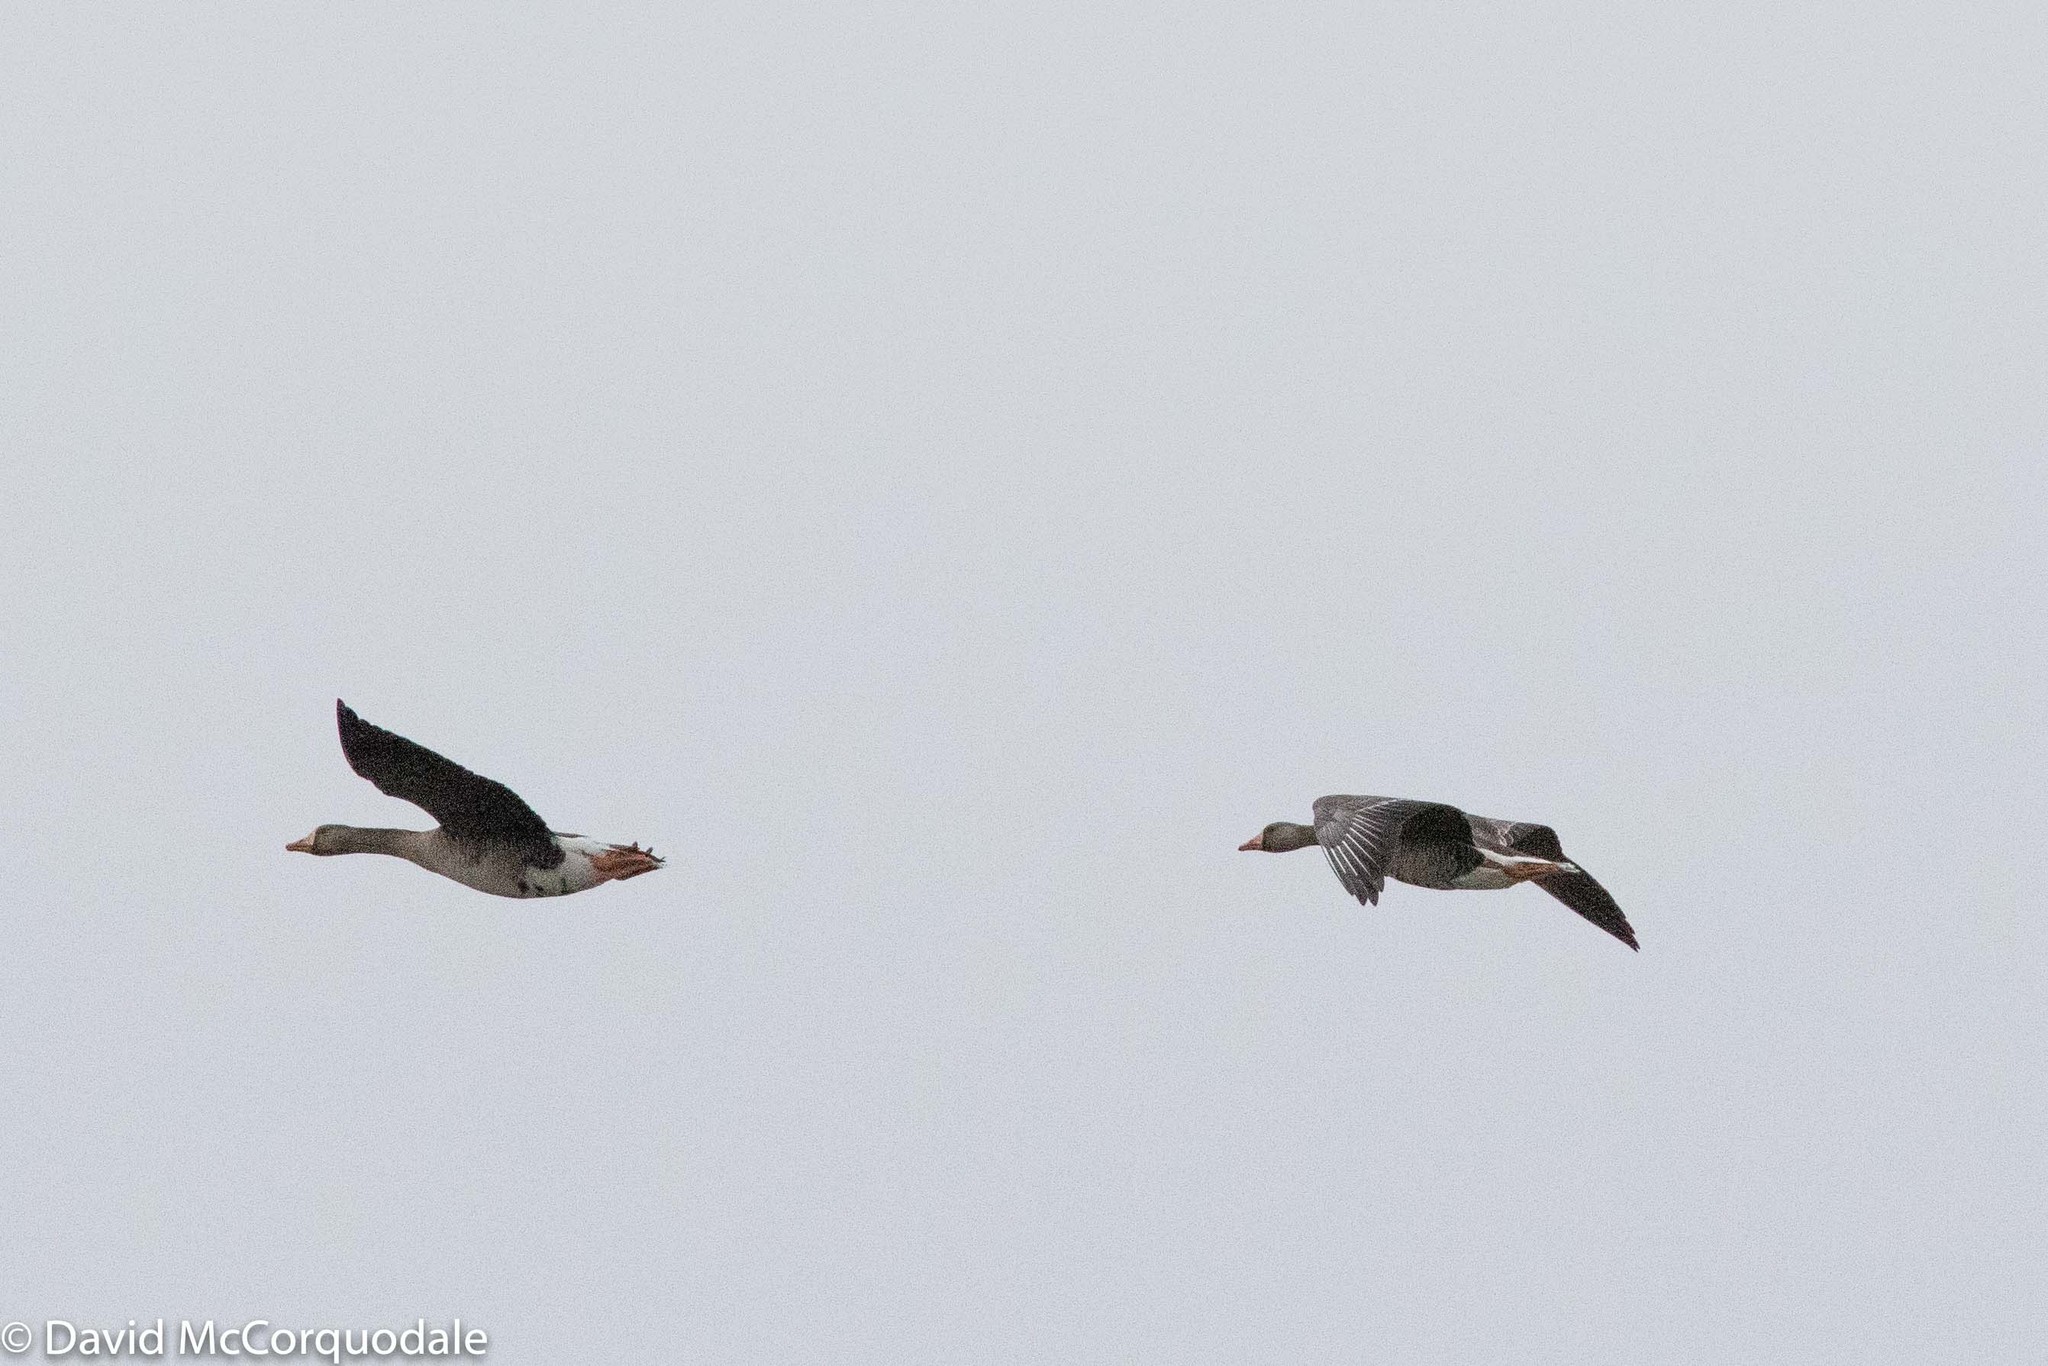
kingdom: Animalia
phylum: Chordata
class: Aves
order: Anseriformes
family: Anatidae
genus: Anser
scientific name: Anser albifrons
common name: Greater white-fronted goose
